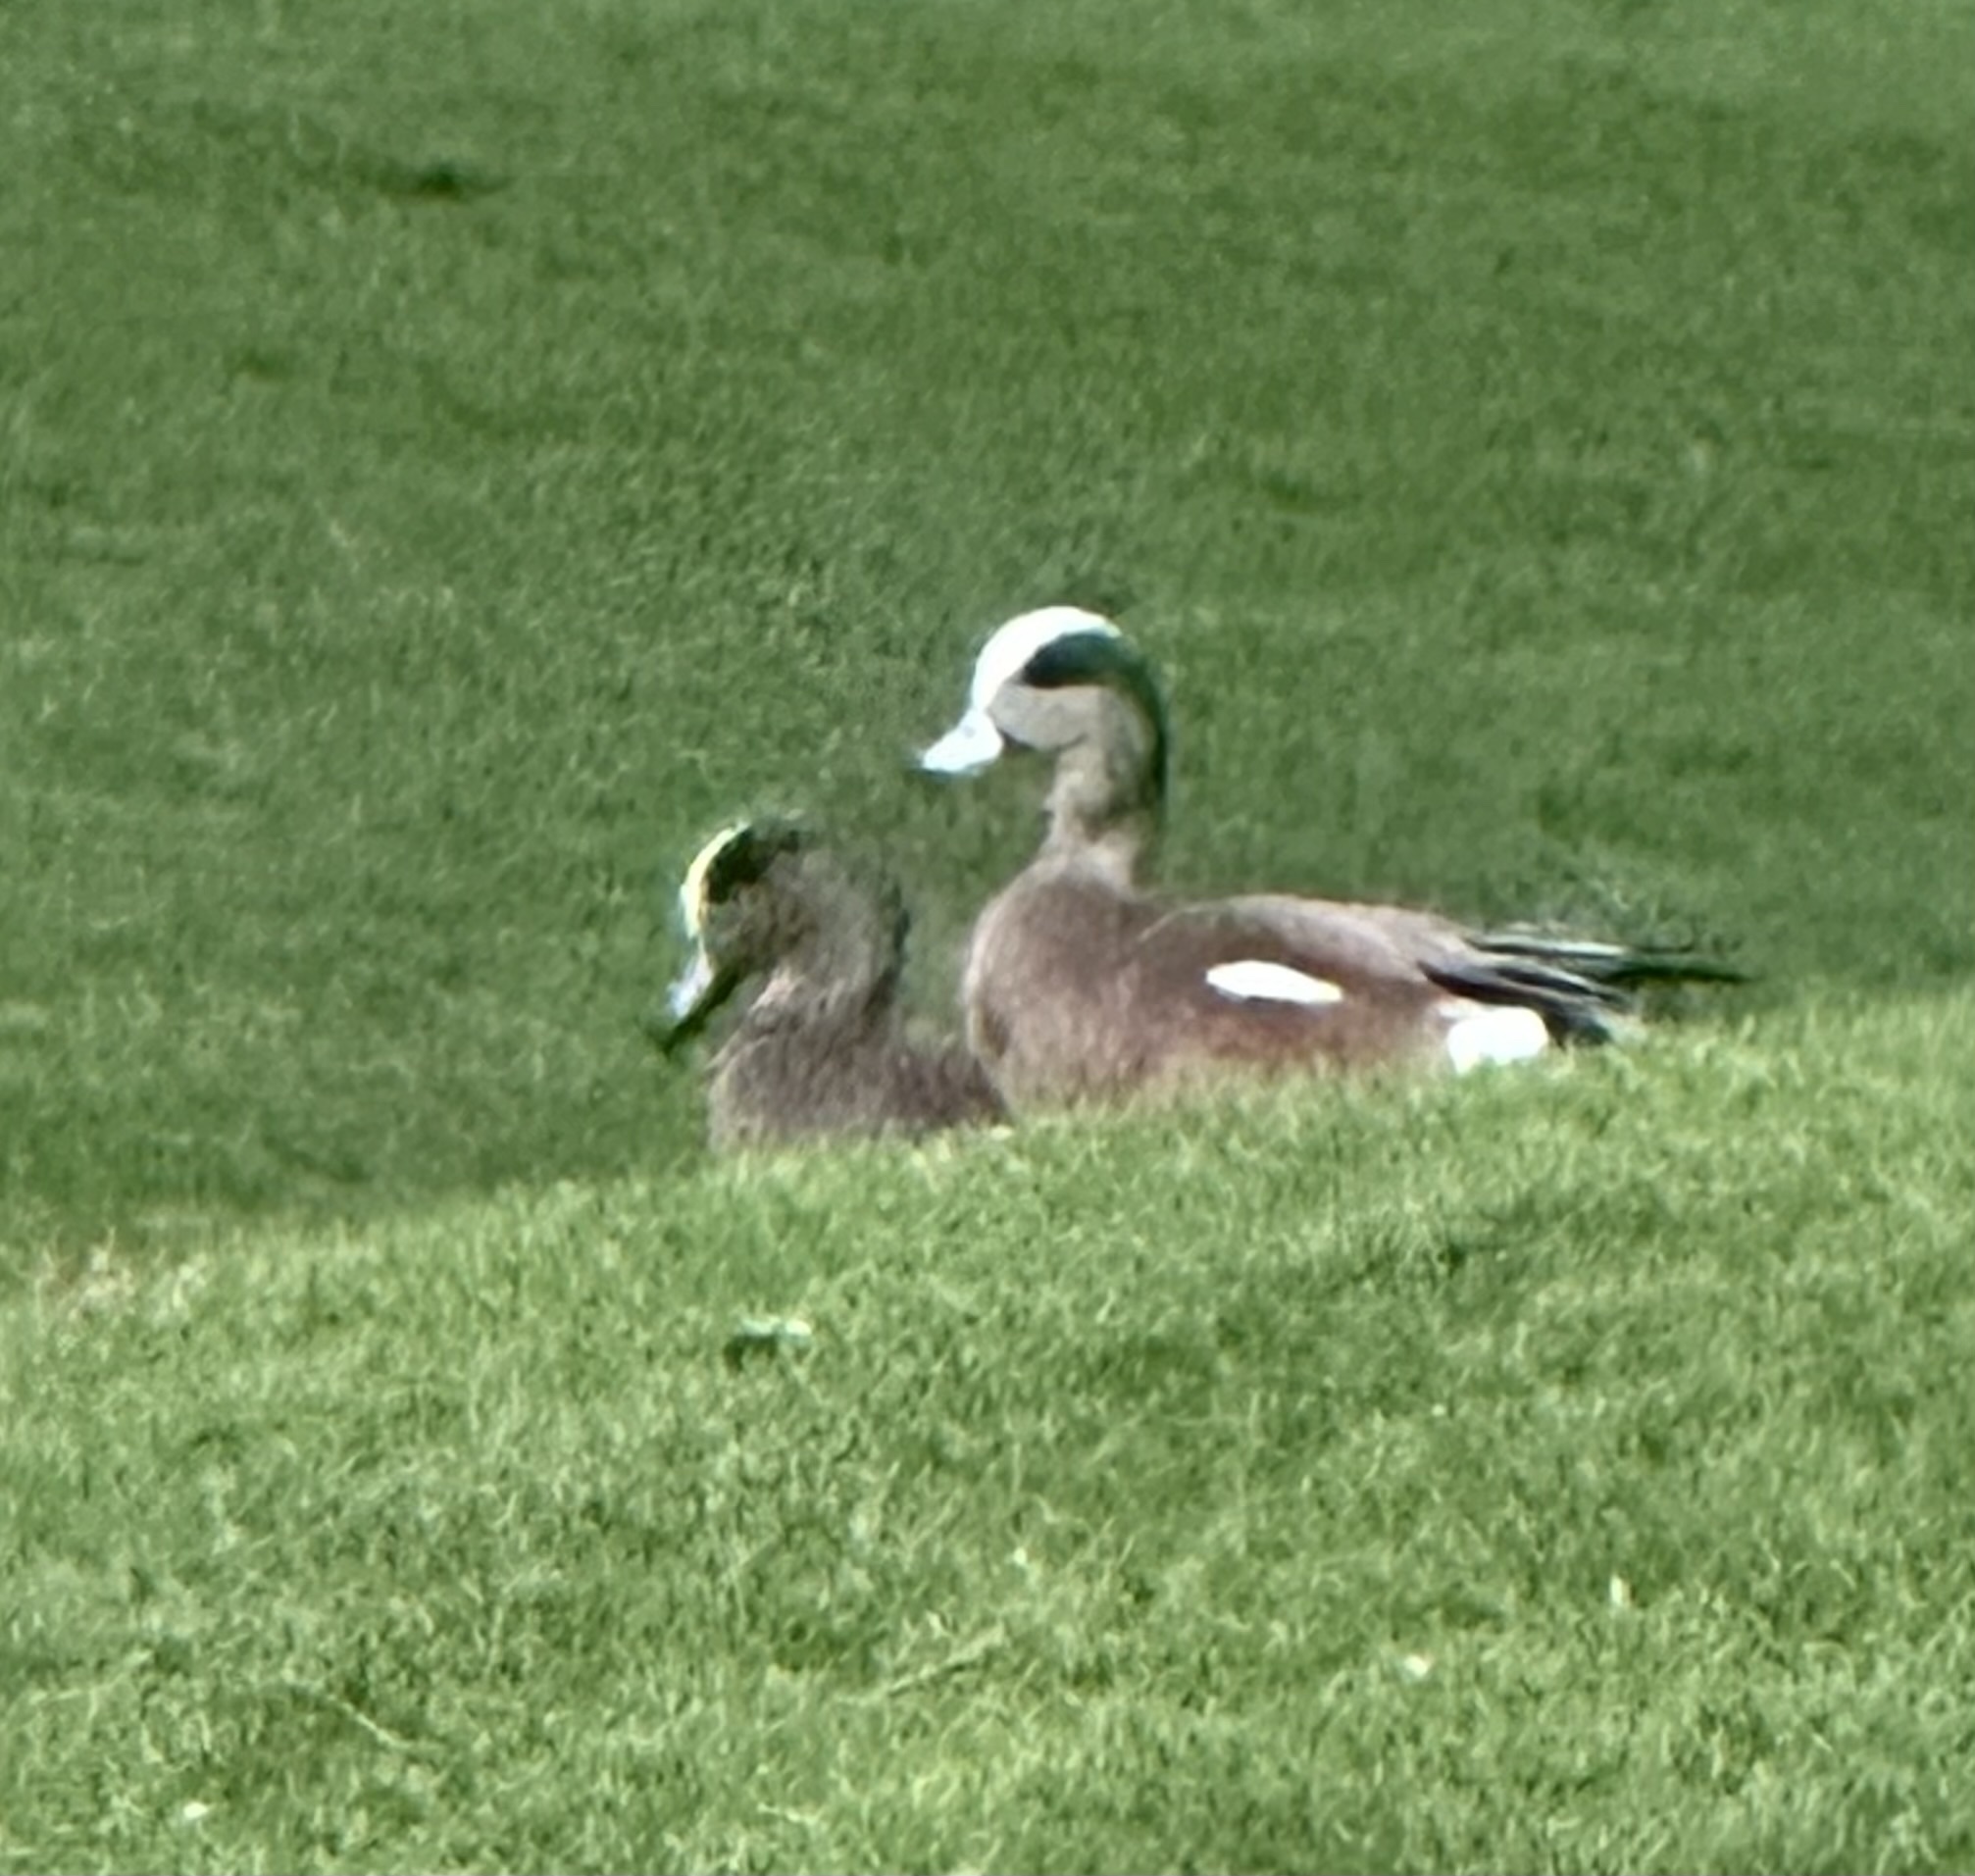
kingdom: Animalia
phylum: Chordata
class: Aves
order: Anseriformes
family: Anatidae
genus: Mareca
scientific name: Mareca americana
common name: American wigeon
